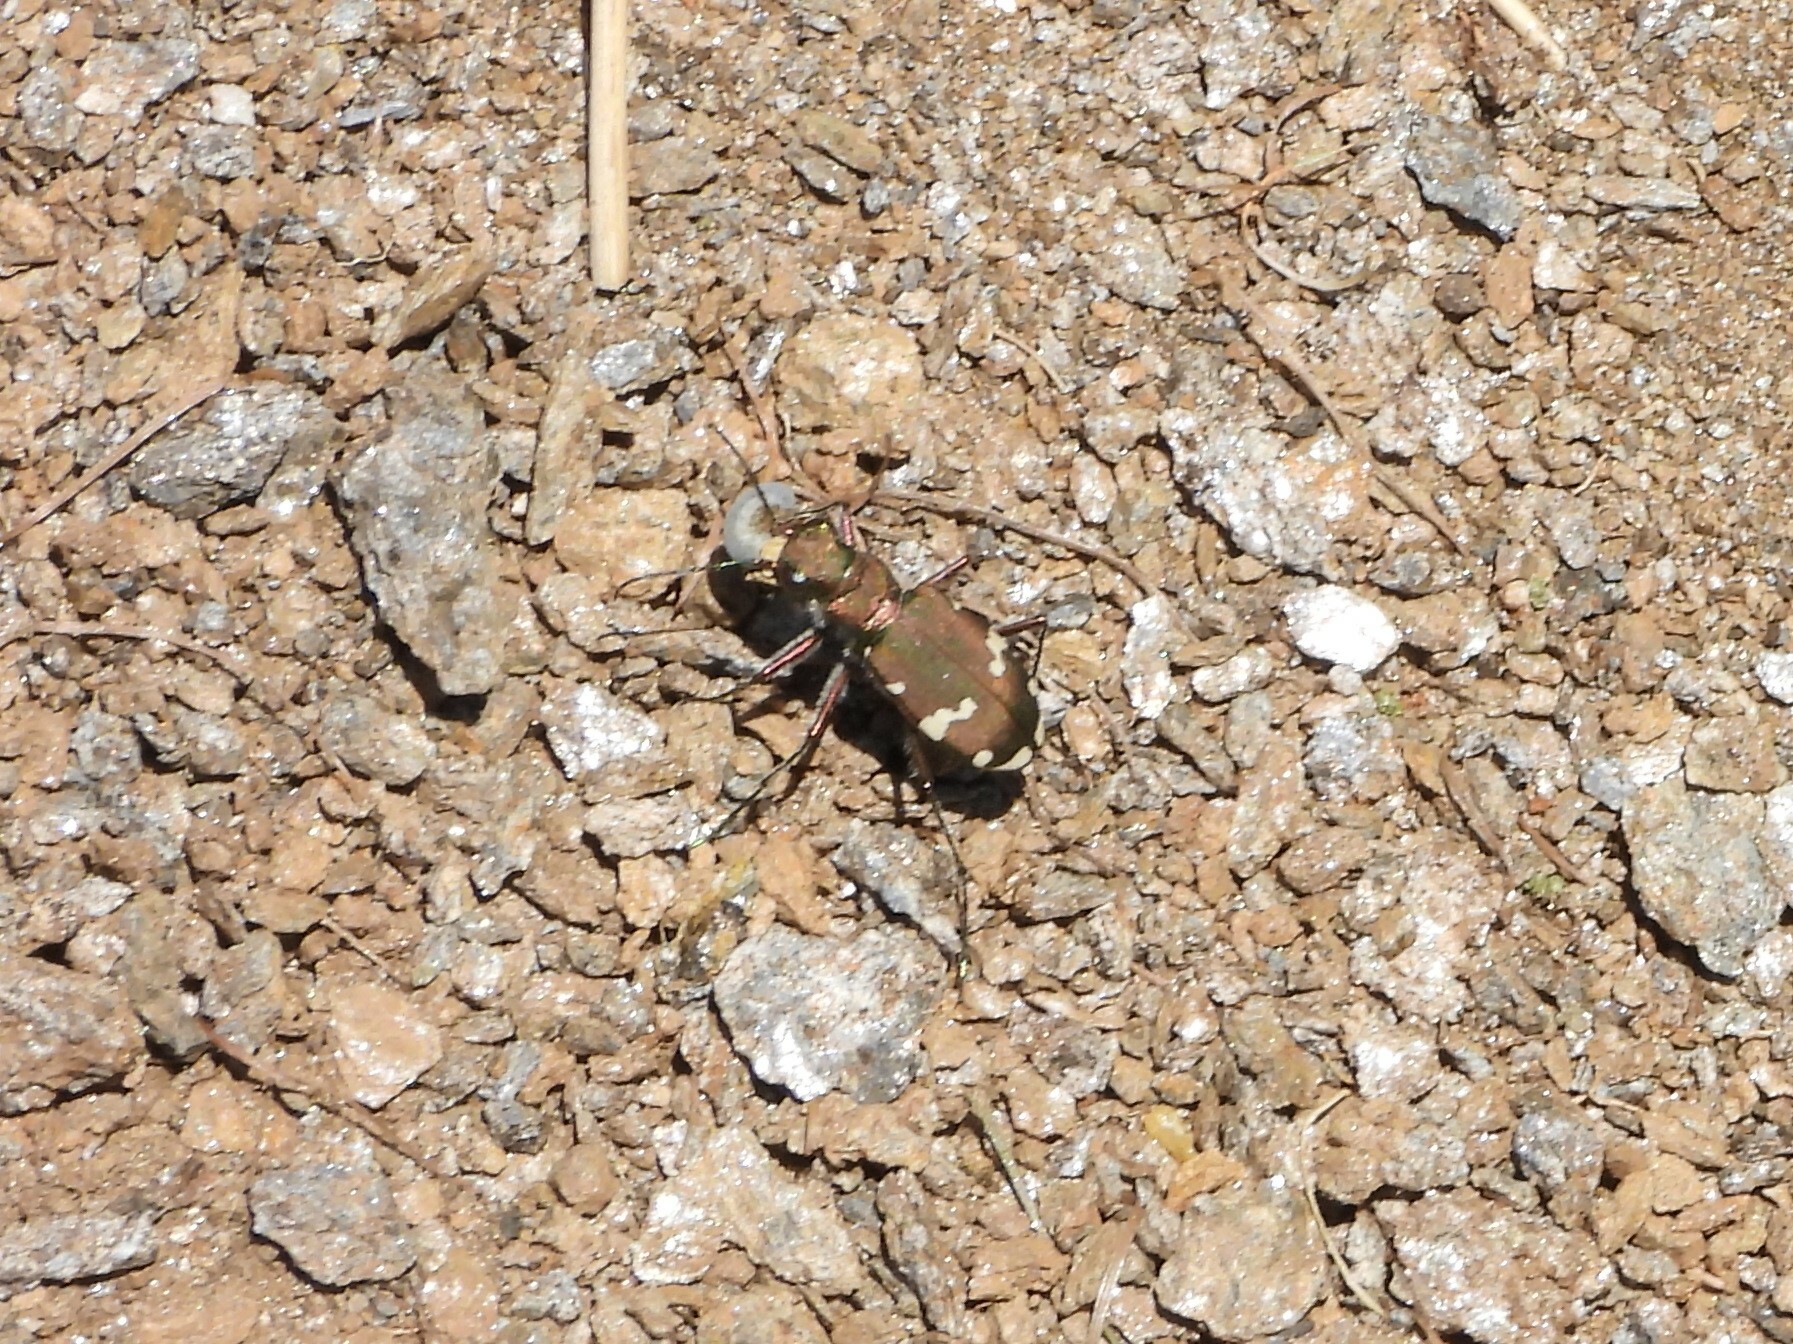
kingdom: Animalia
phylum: Arthropoda
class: Insecta
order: Coleoptera
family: Carabidae
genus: Cicindela
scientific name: Cicindela sylvicola
